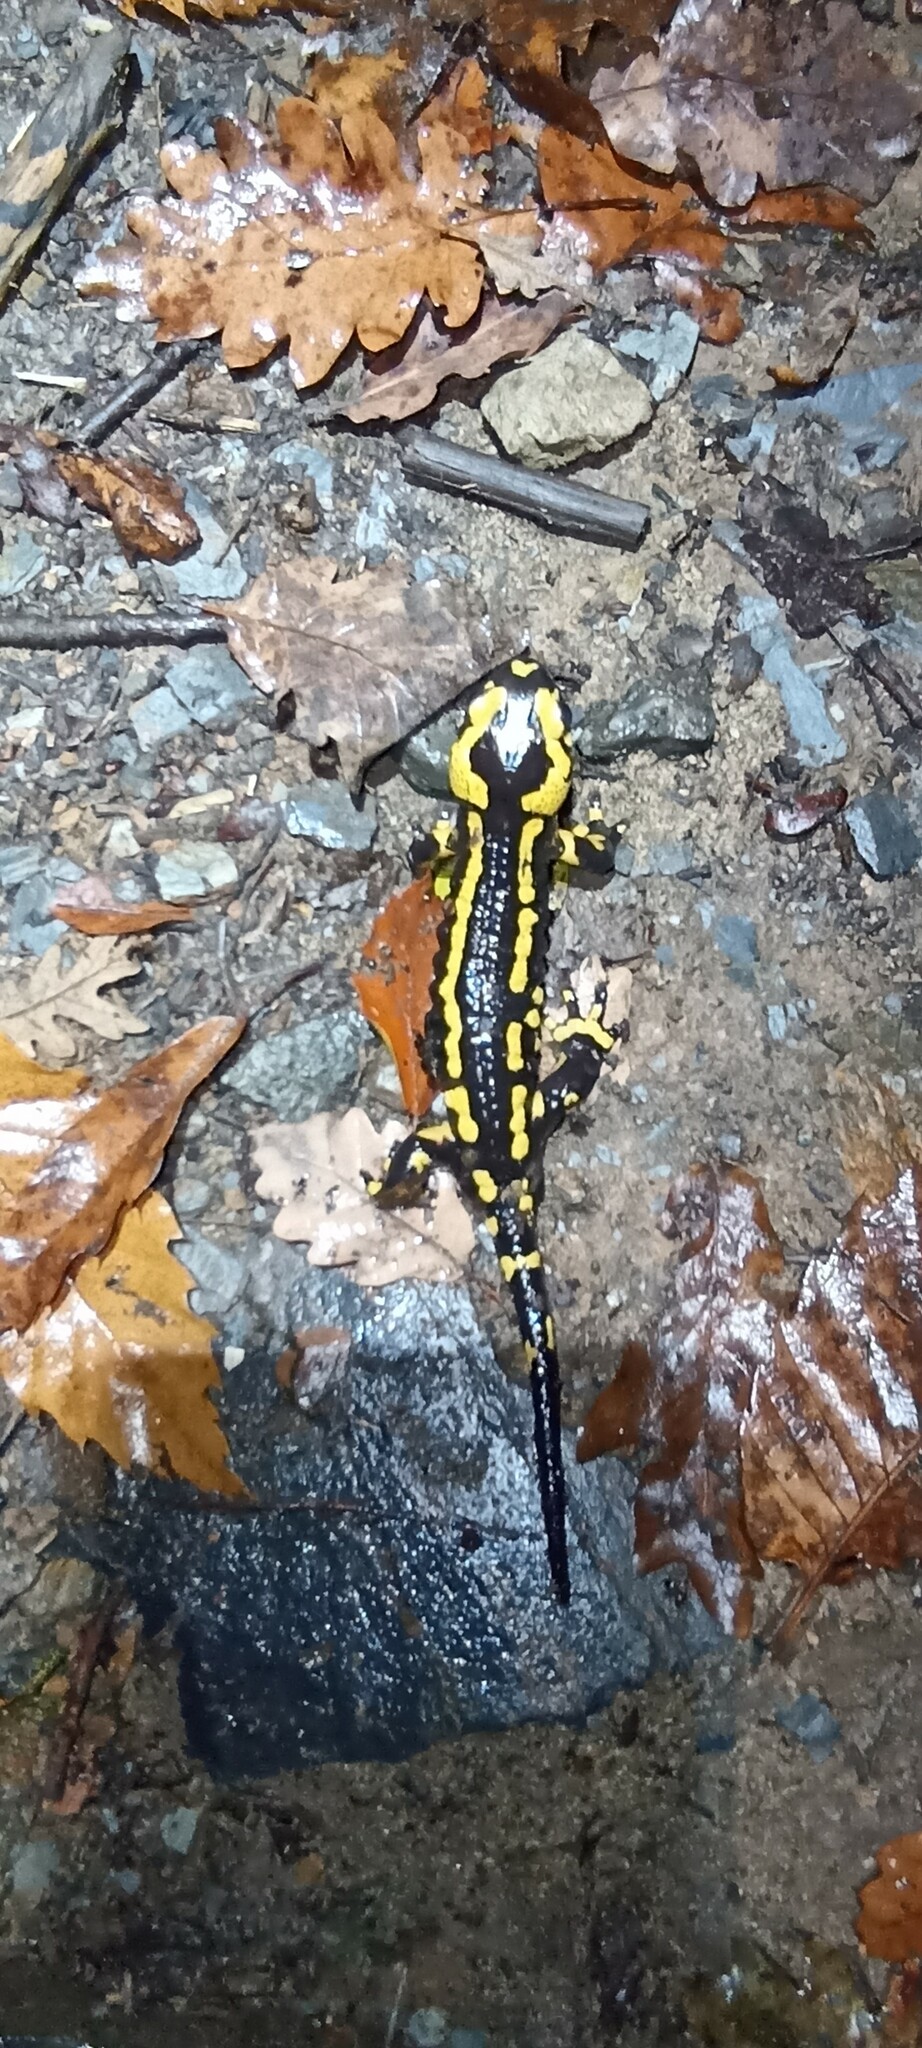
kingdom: Animalia
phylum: Chordata
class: Amphibia
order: Caudata
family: Salamandridae
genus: Salamandra
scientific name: Salamandra salamandra
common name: Fire salamander
